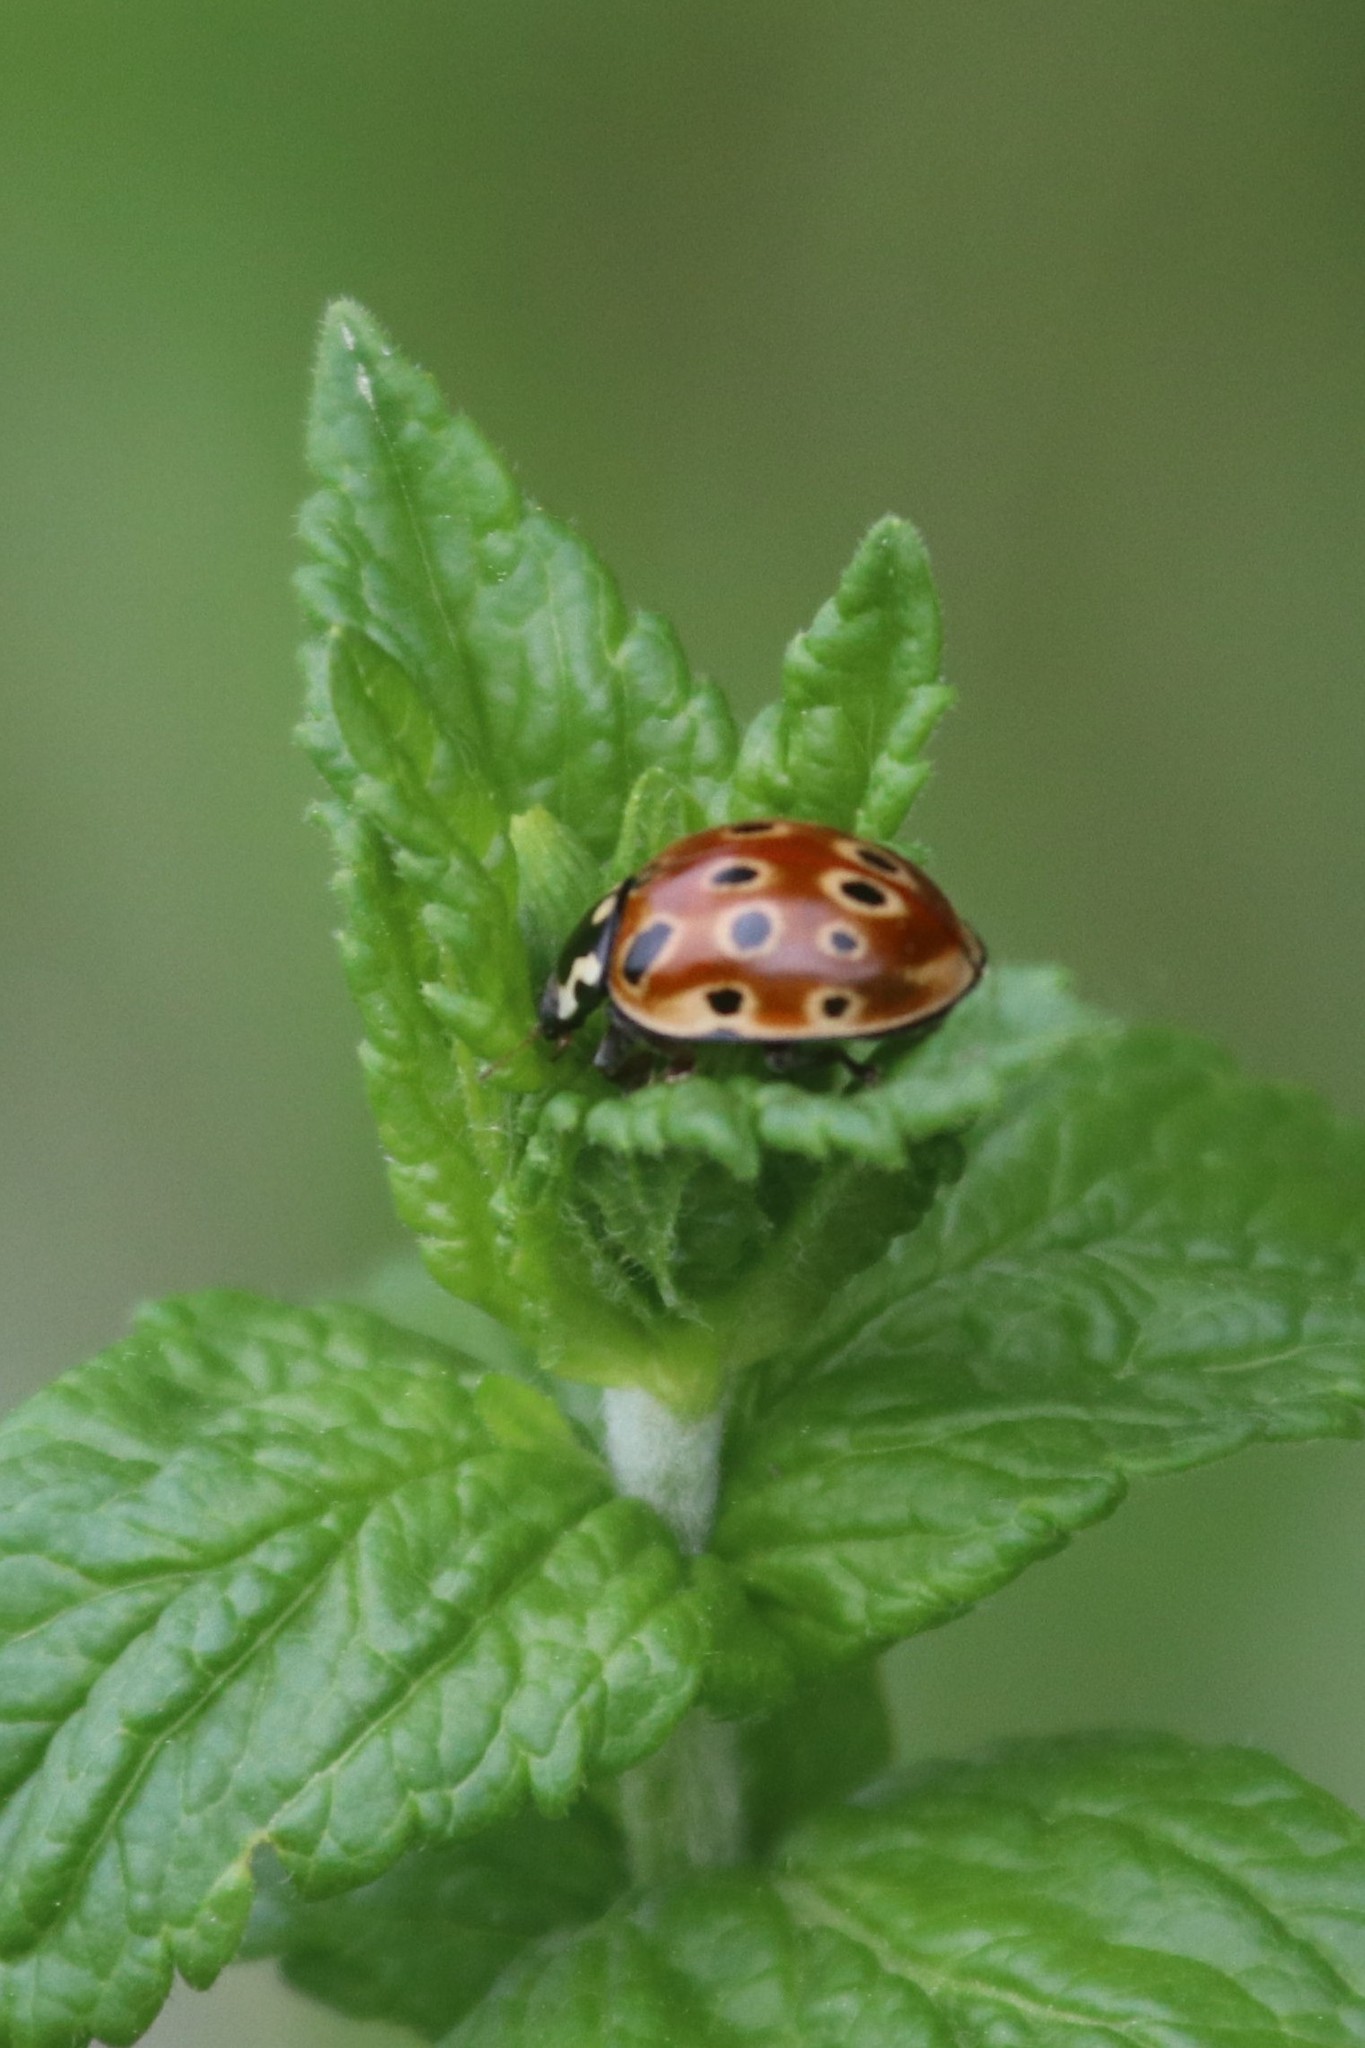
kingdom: Animalia
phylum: Arthropoda
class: Insecta
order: Coleoptera
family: Coccinellidae
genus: Anatis
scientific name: Anatis ocellata
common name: Eyed ladybird
